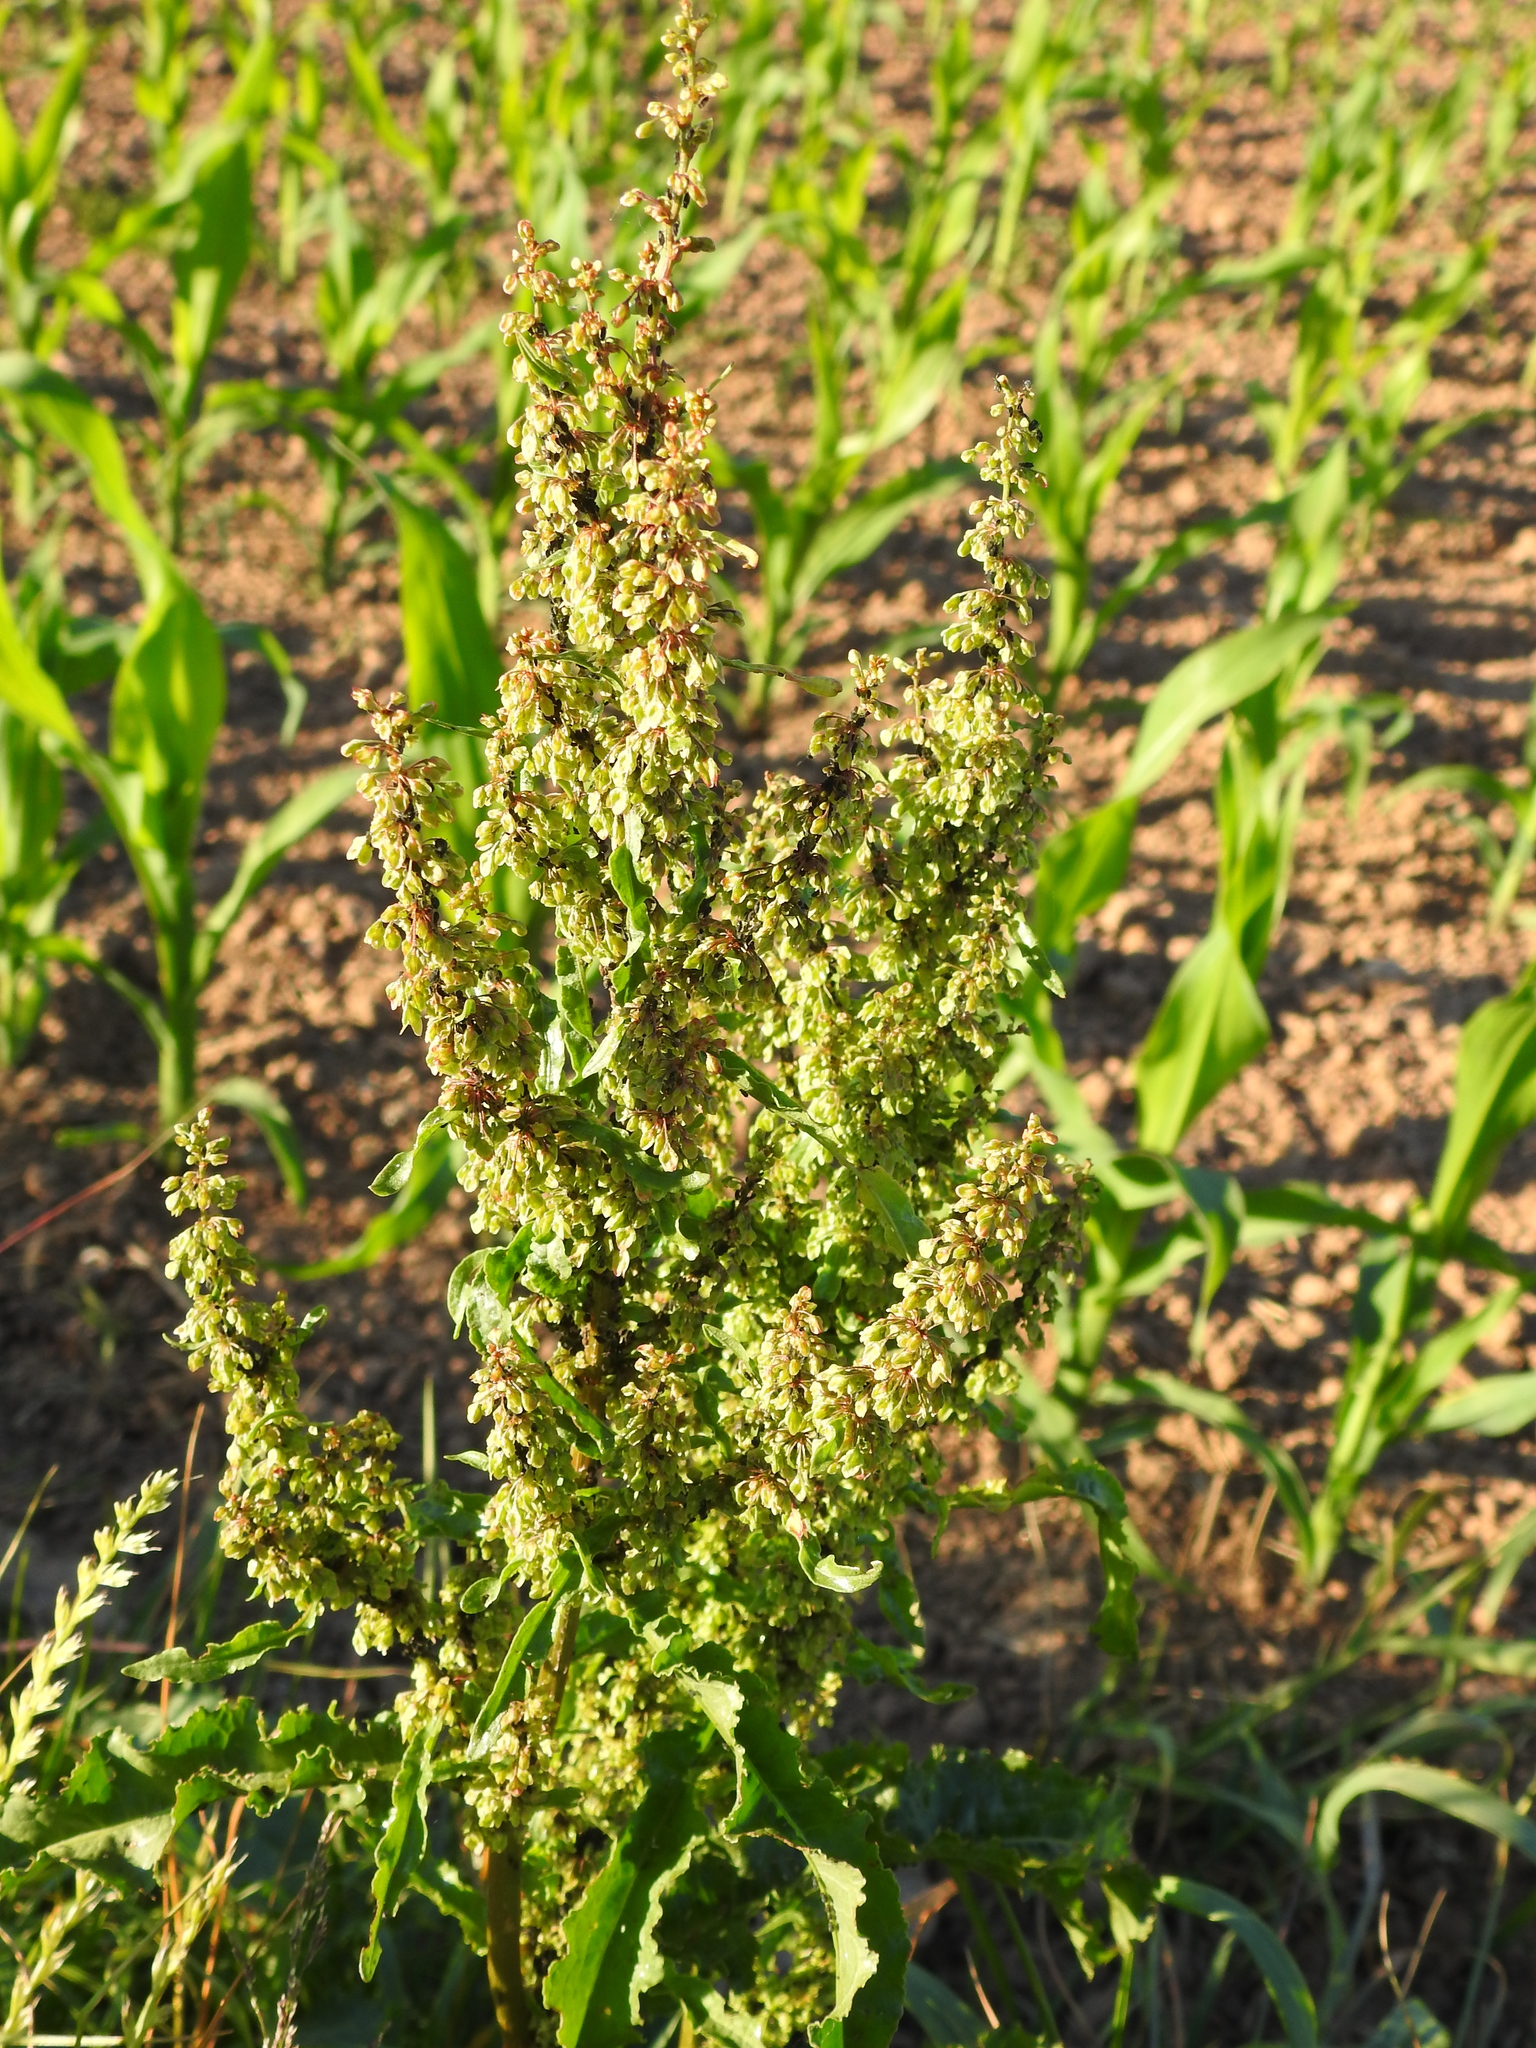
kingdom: Plantae
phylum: Tracheophyta
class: Magnoliopsida
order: Caryophyllales
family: Polygonaceae
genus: Rumex
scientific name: Rumex crispus
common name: Curled dock
